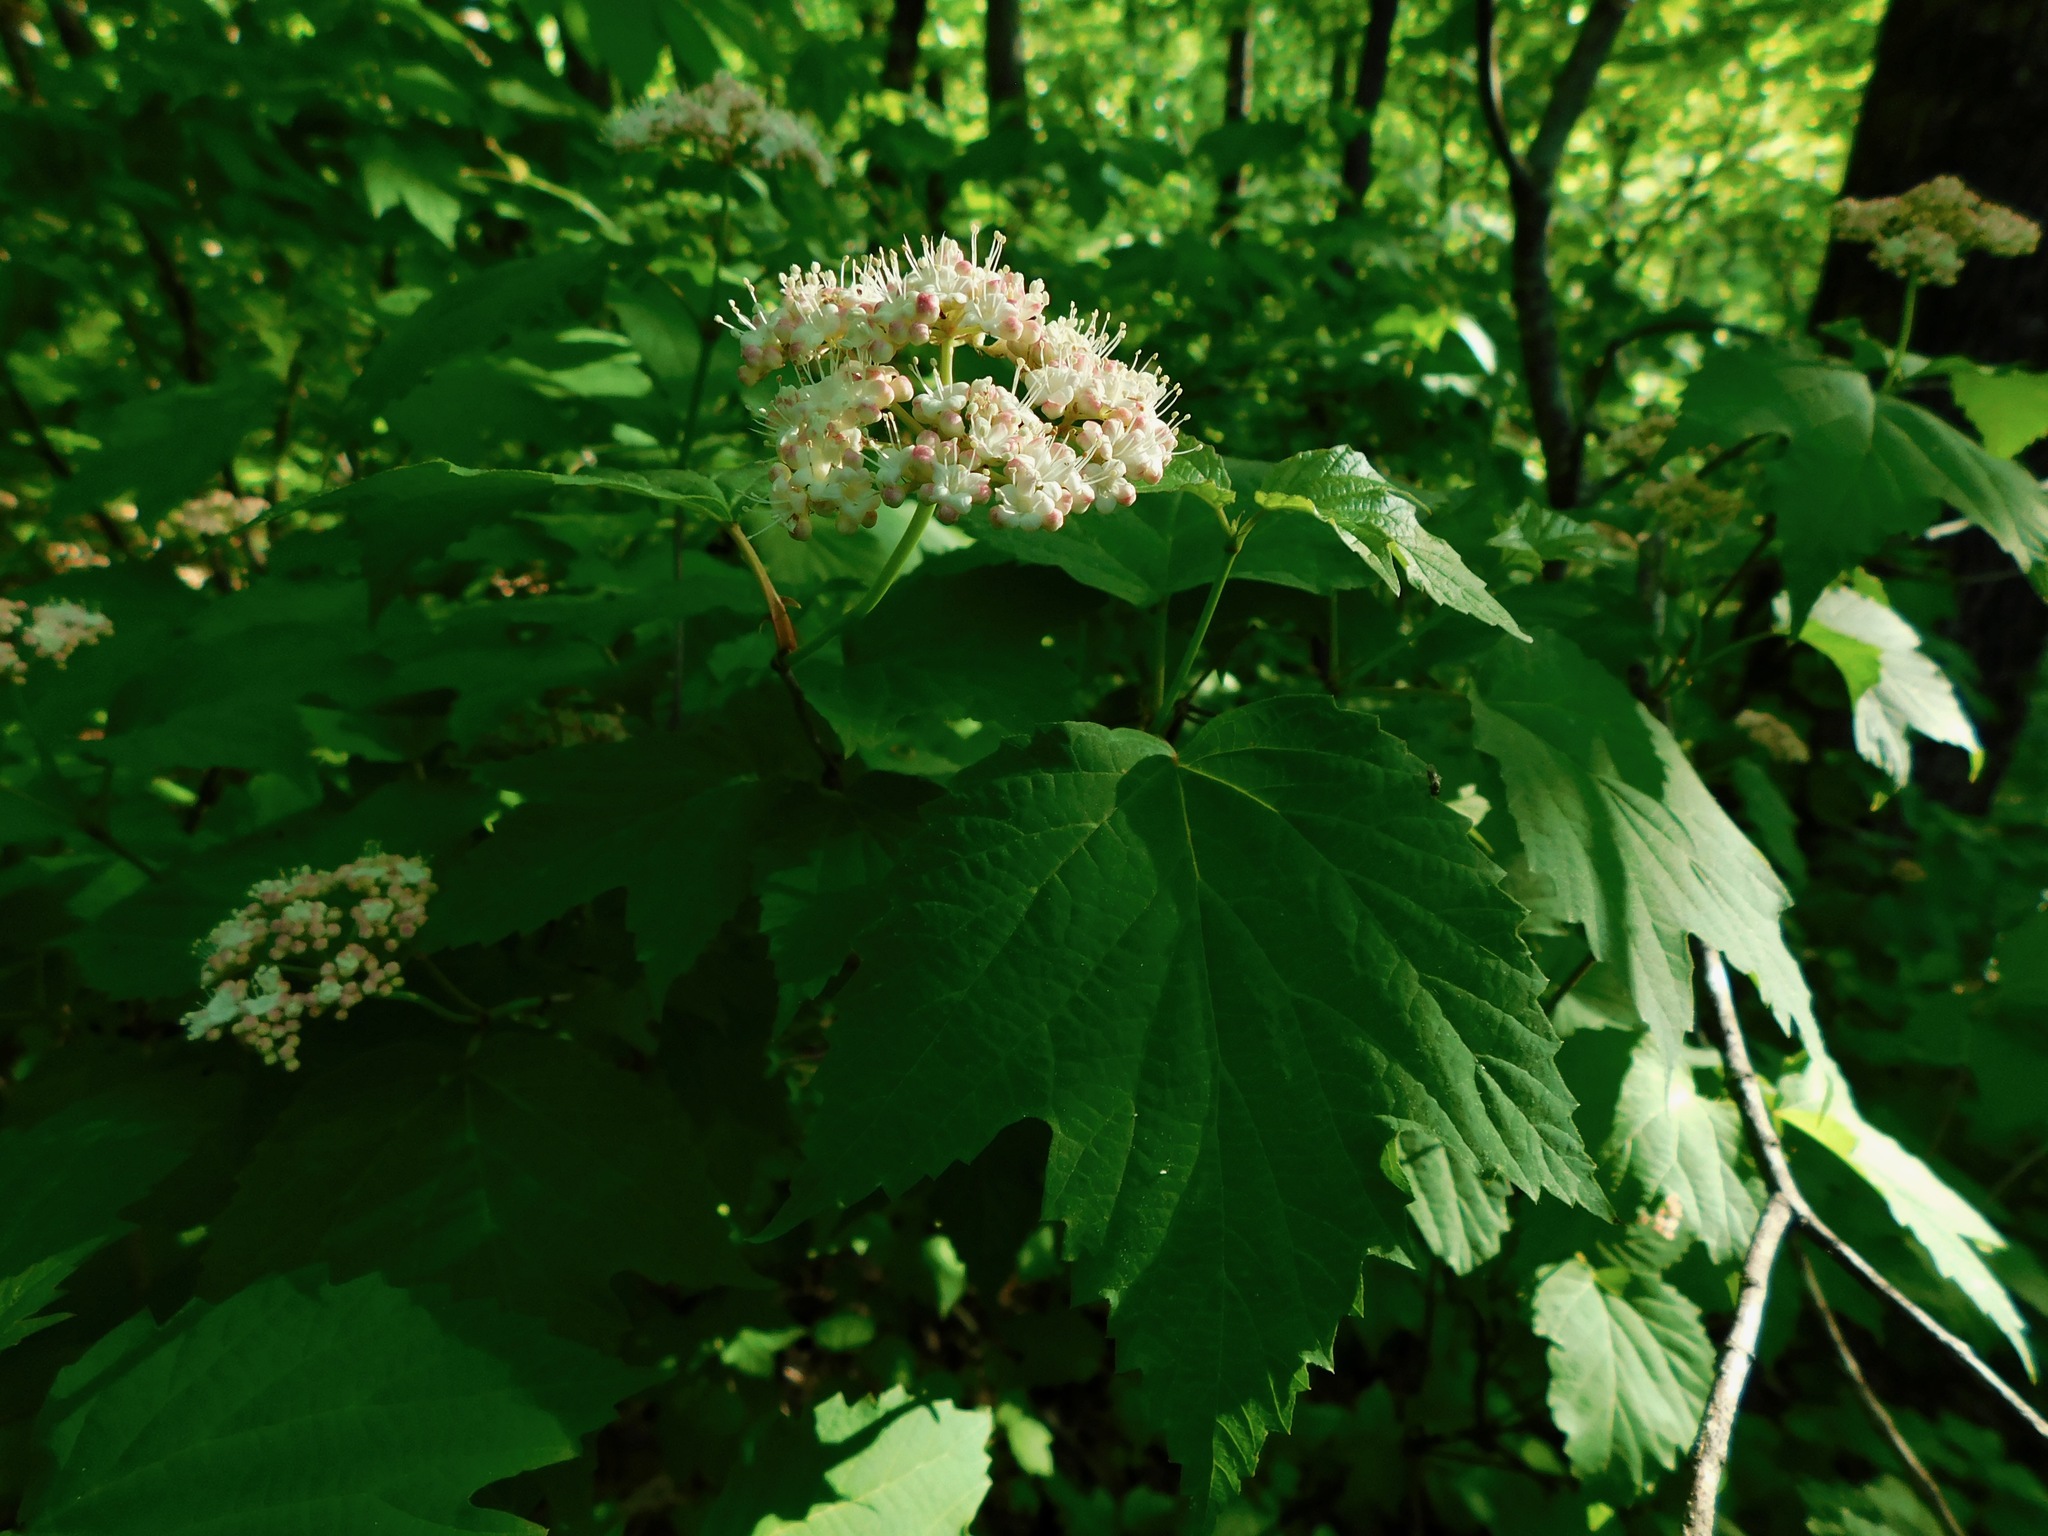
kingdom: Plantae
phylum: Tracheophyta
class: Magnoliopsida
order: Dipsacales
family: Viburnaceae
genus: Viburnum
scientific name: Viburnum acerifolium
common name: Dockmackie
